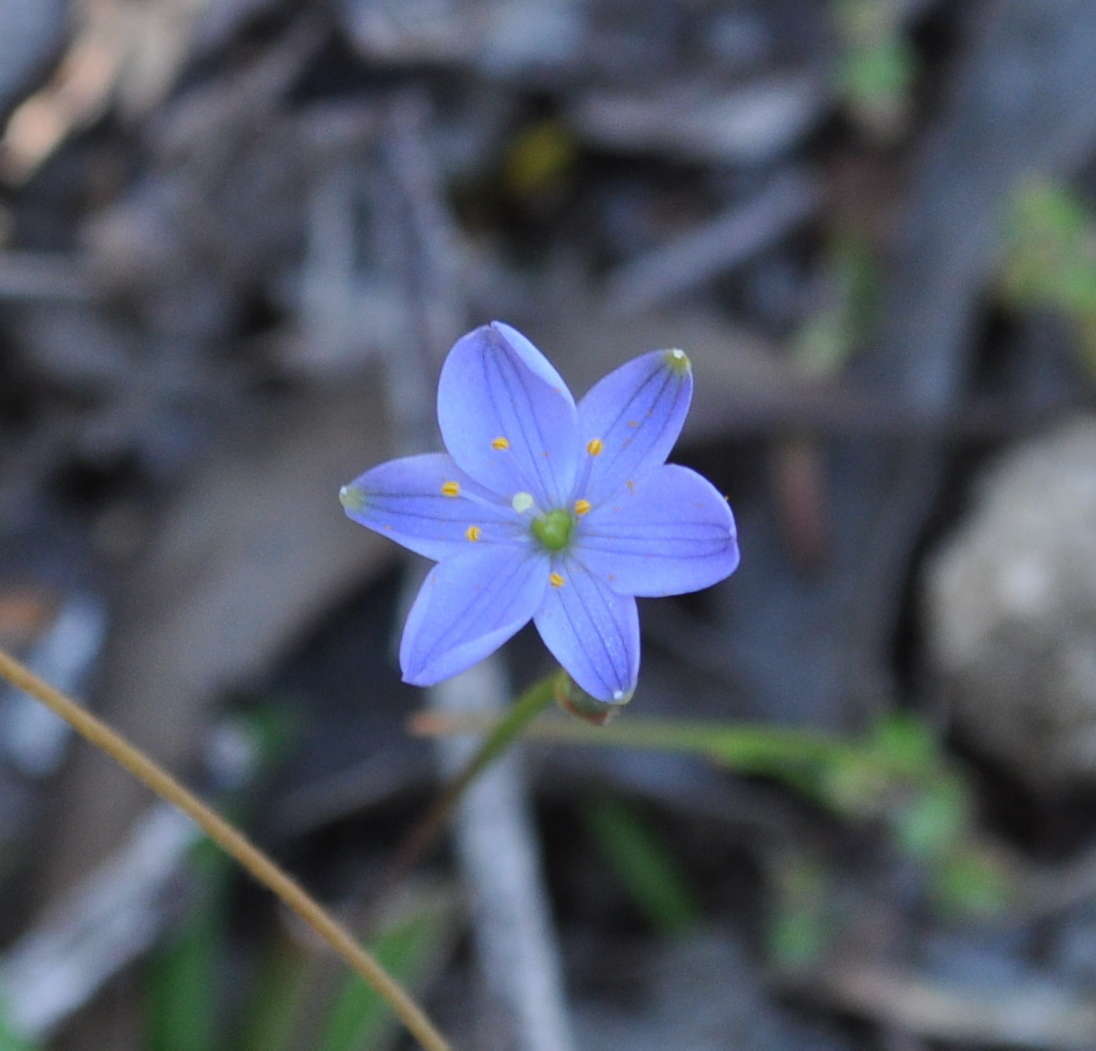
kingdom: Plantae
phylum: Tracheophyta
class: Liliopsida
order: Asparagales
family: Asphodelaceae
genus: Chamaescilla
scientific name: Chamaescilla corymbosa
